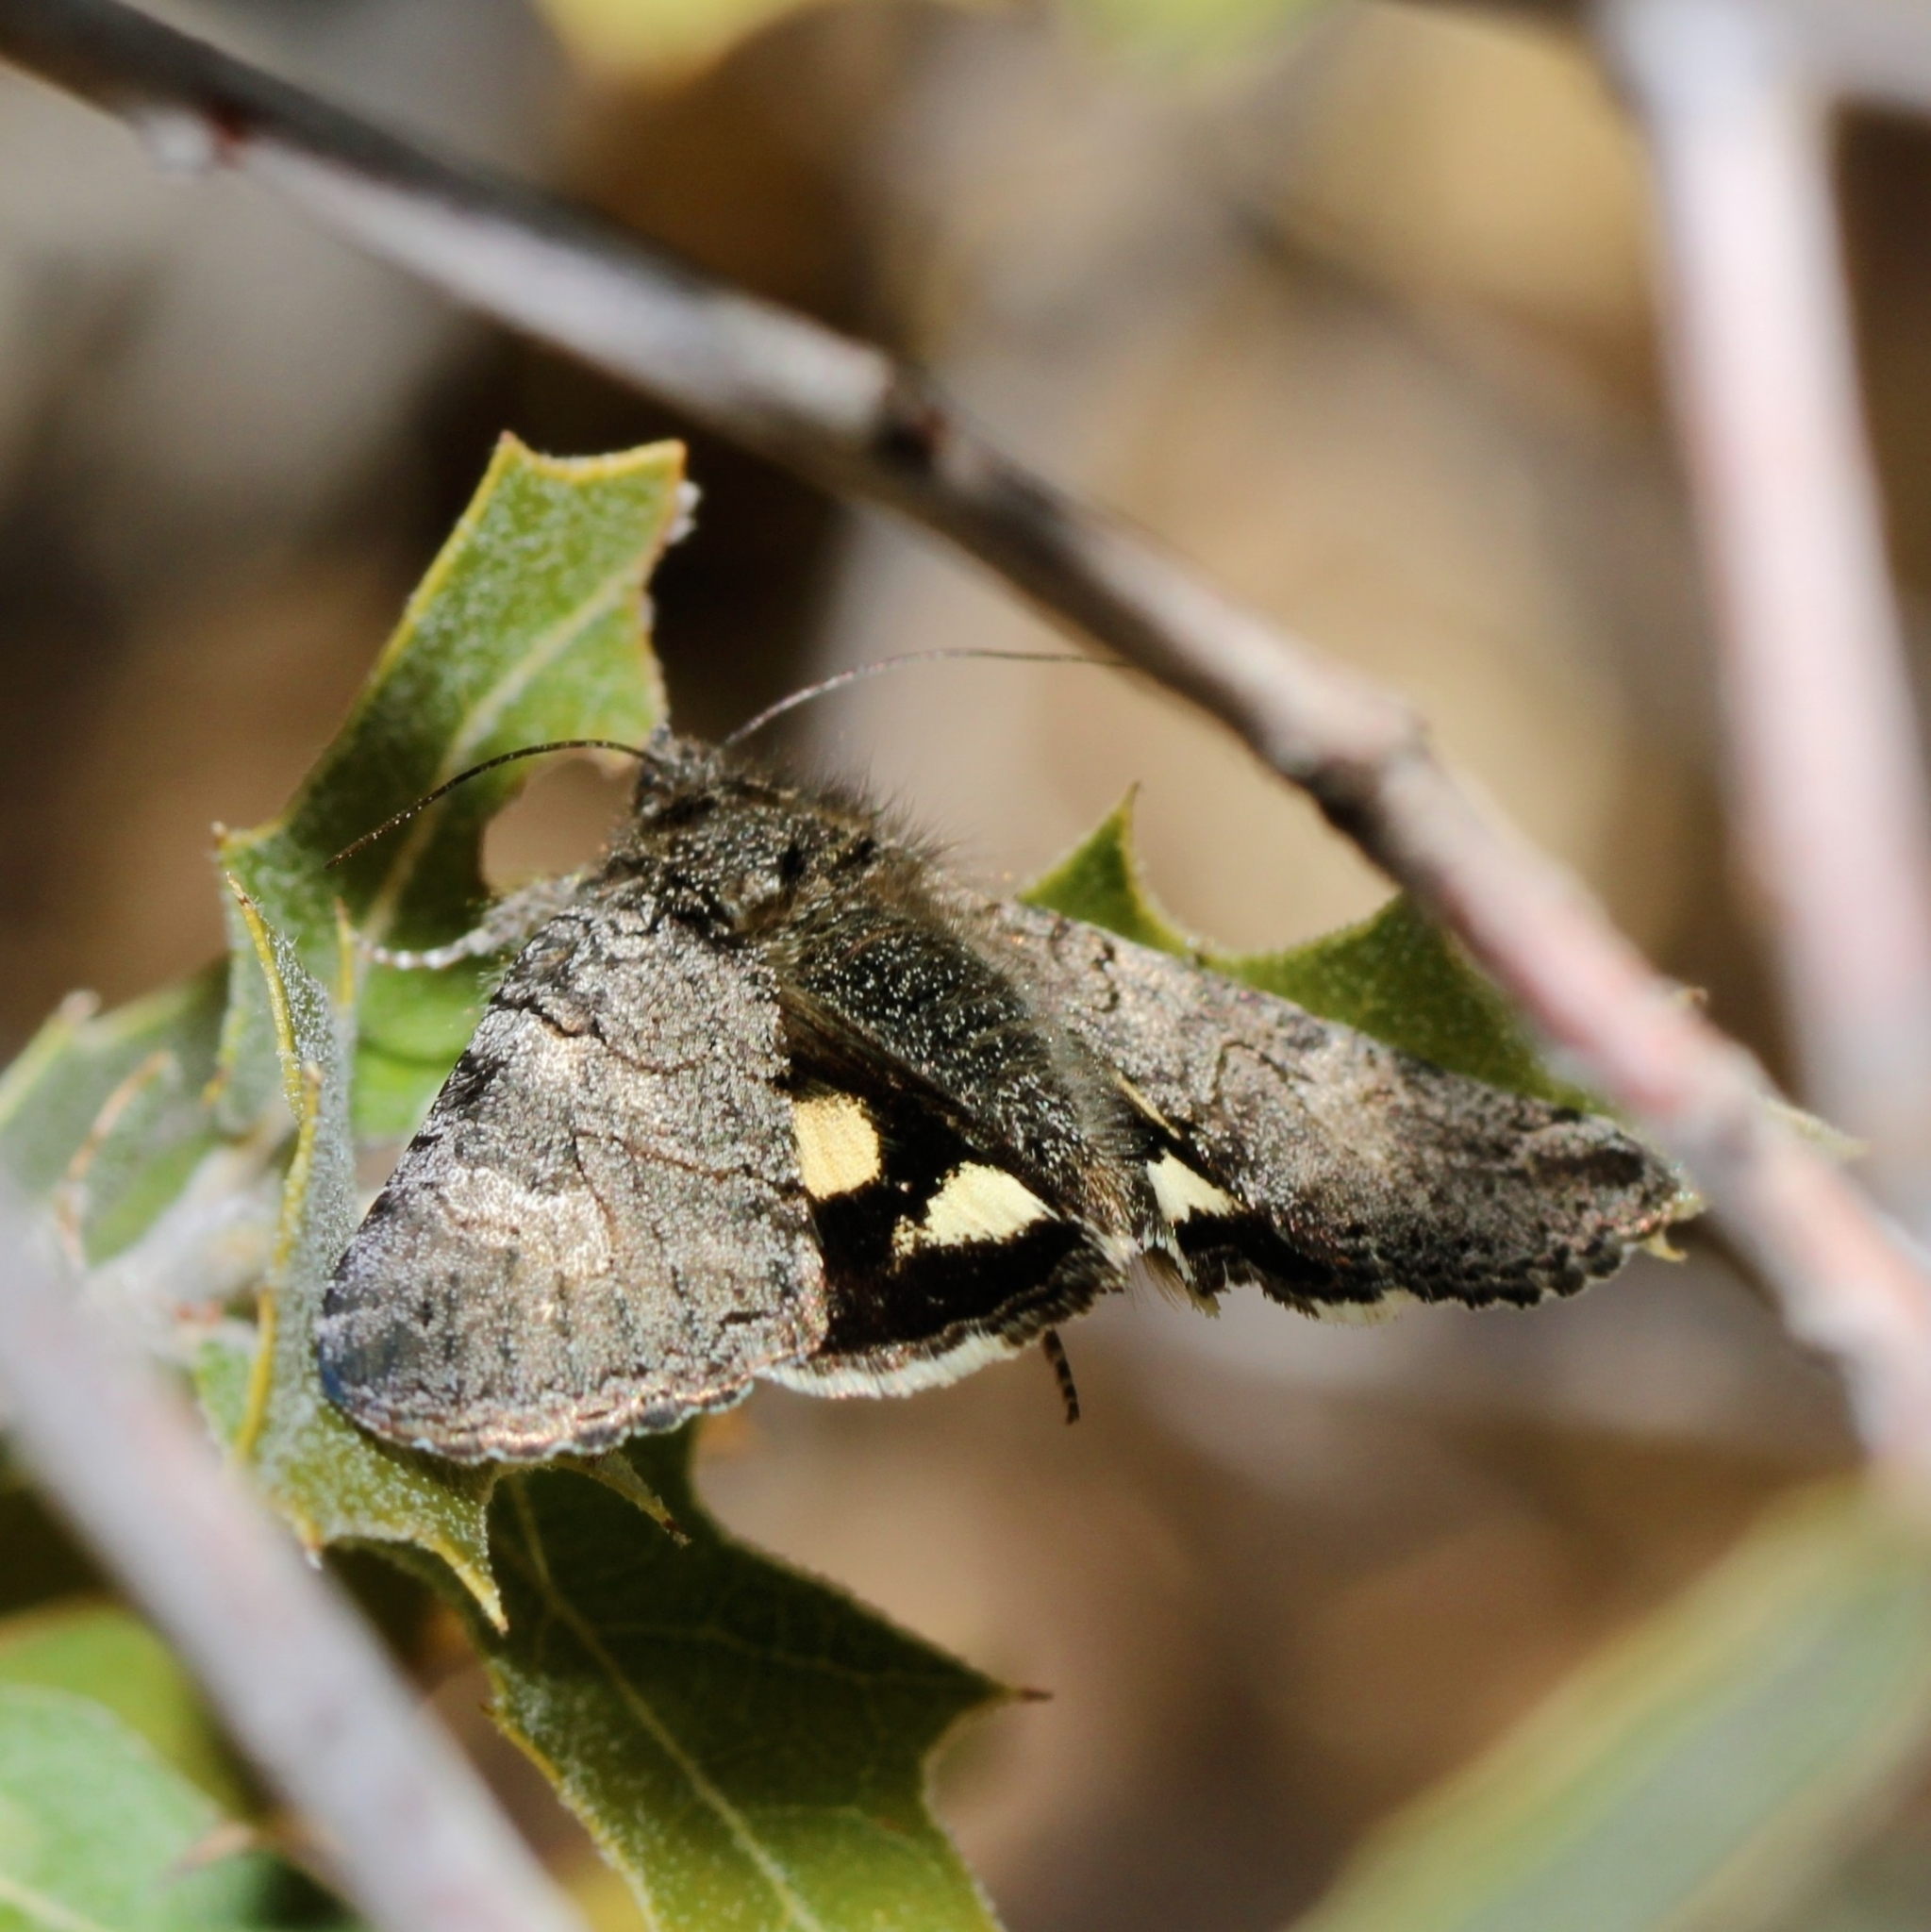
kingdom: Animalia
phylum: Arthropoda
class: Insecta
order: Lepidoptera
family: Erebidae
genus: Litocala
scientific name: Litocala sexsignata
